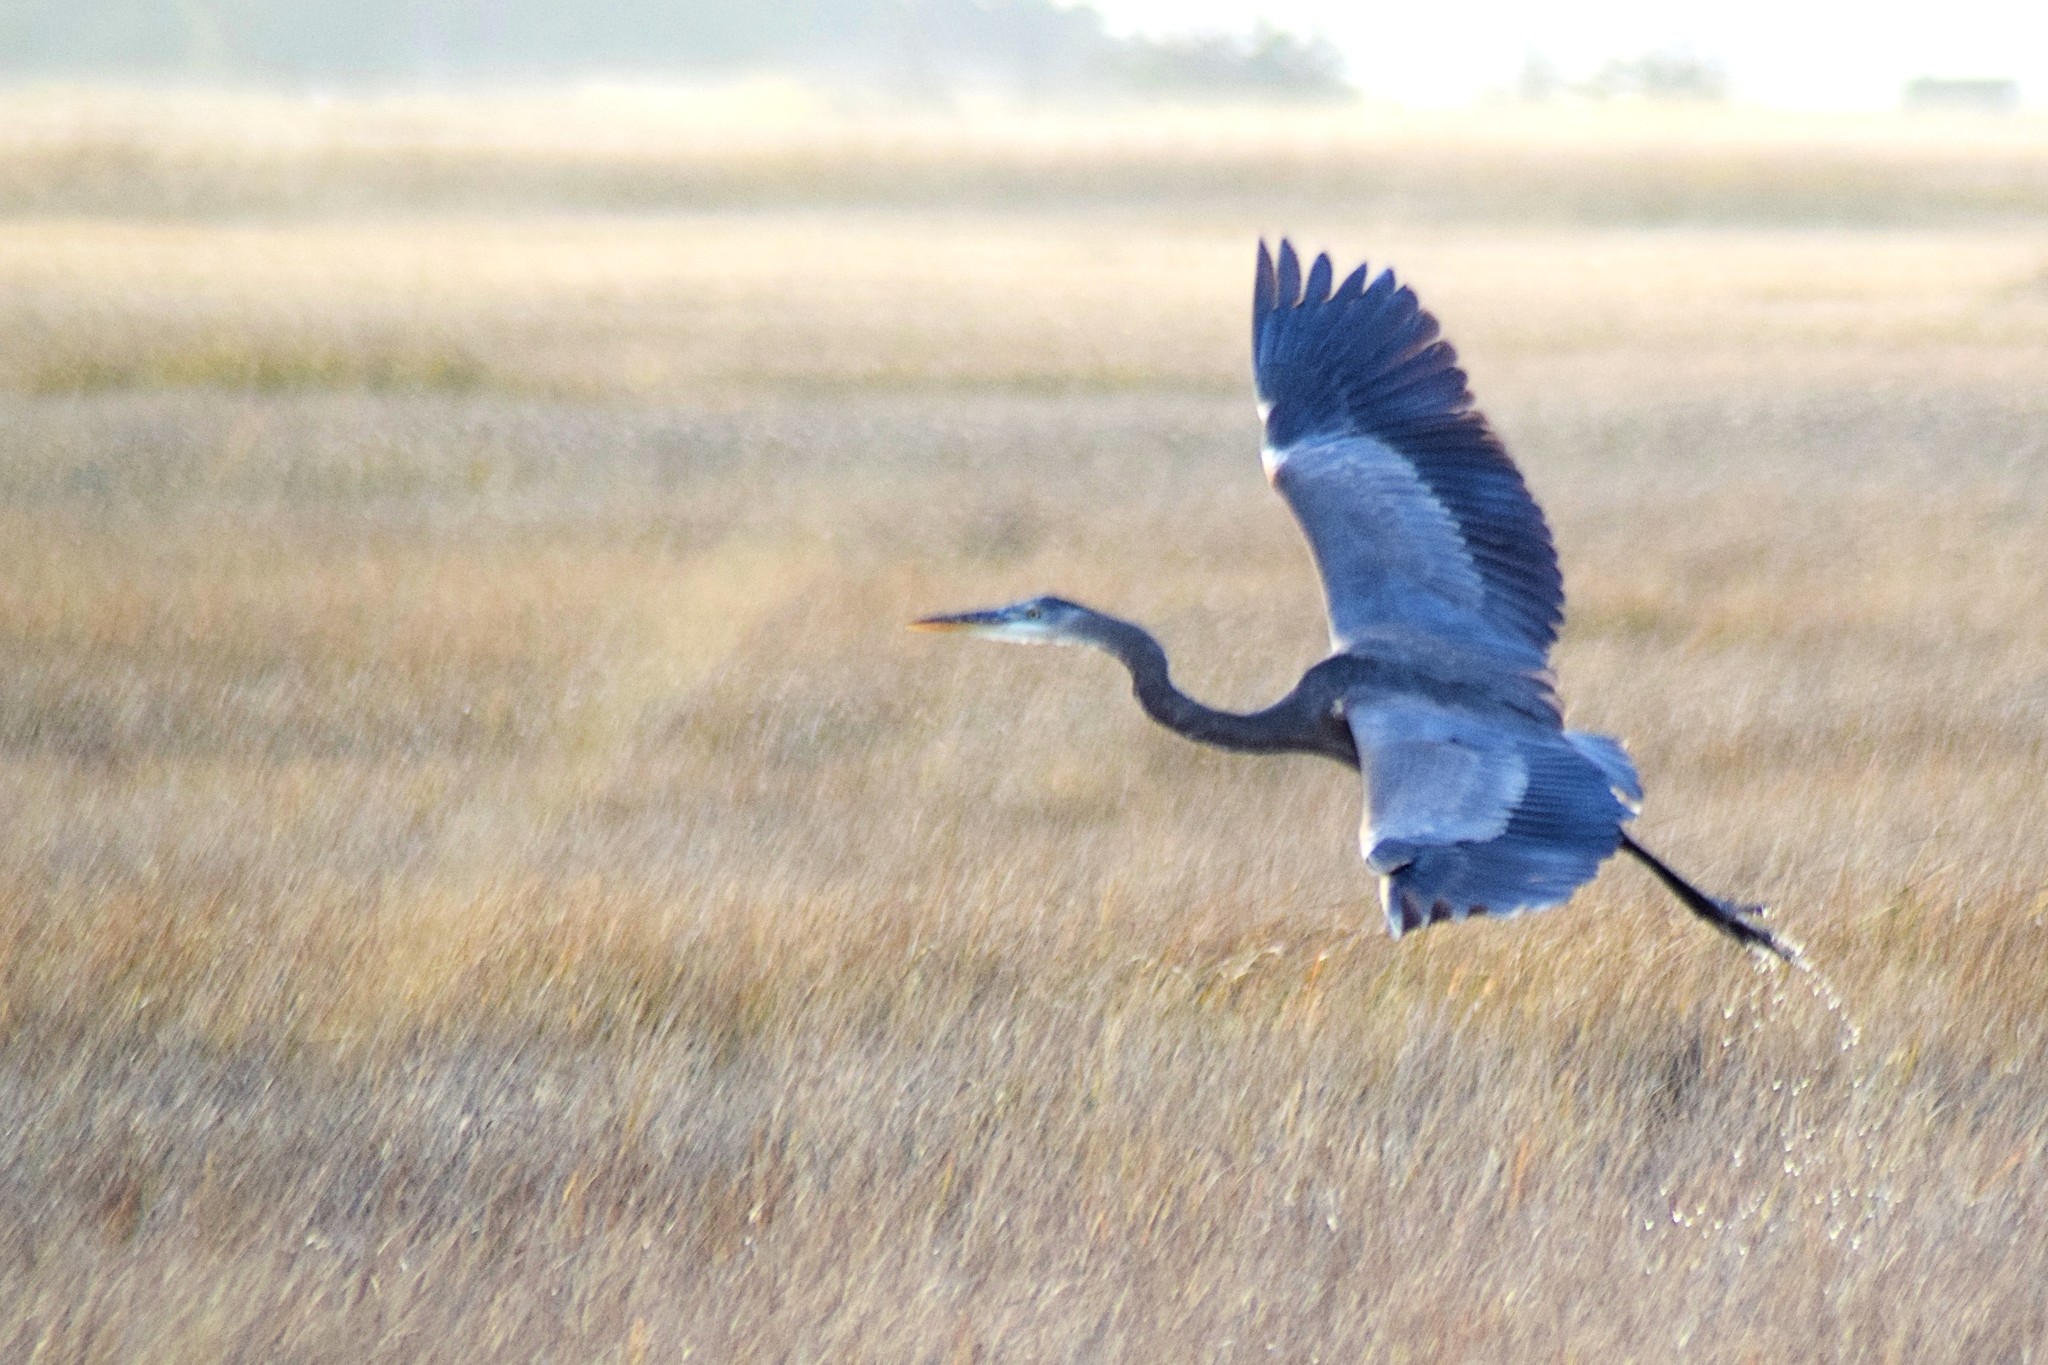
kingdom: Animalia
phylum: Chordata
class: Aves
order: Pelecaniformes
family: Ardeidae
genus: Ardea
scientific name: Ardea herodias
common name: Great blue heron
